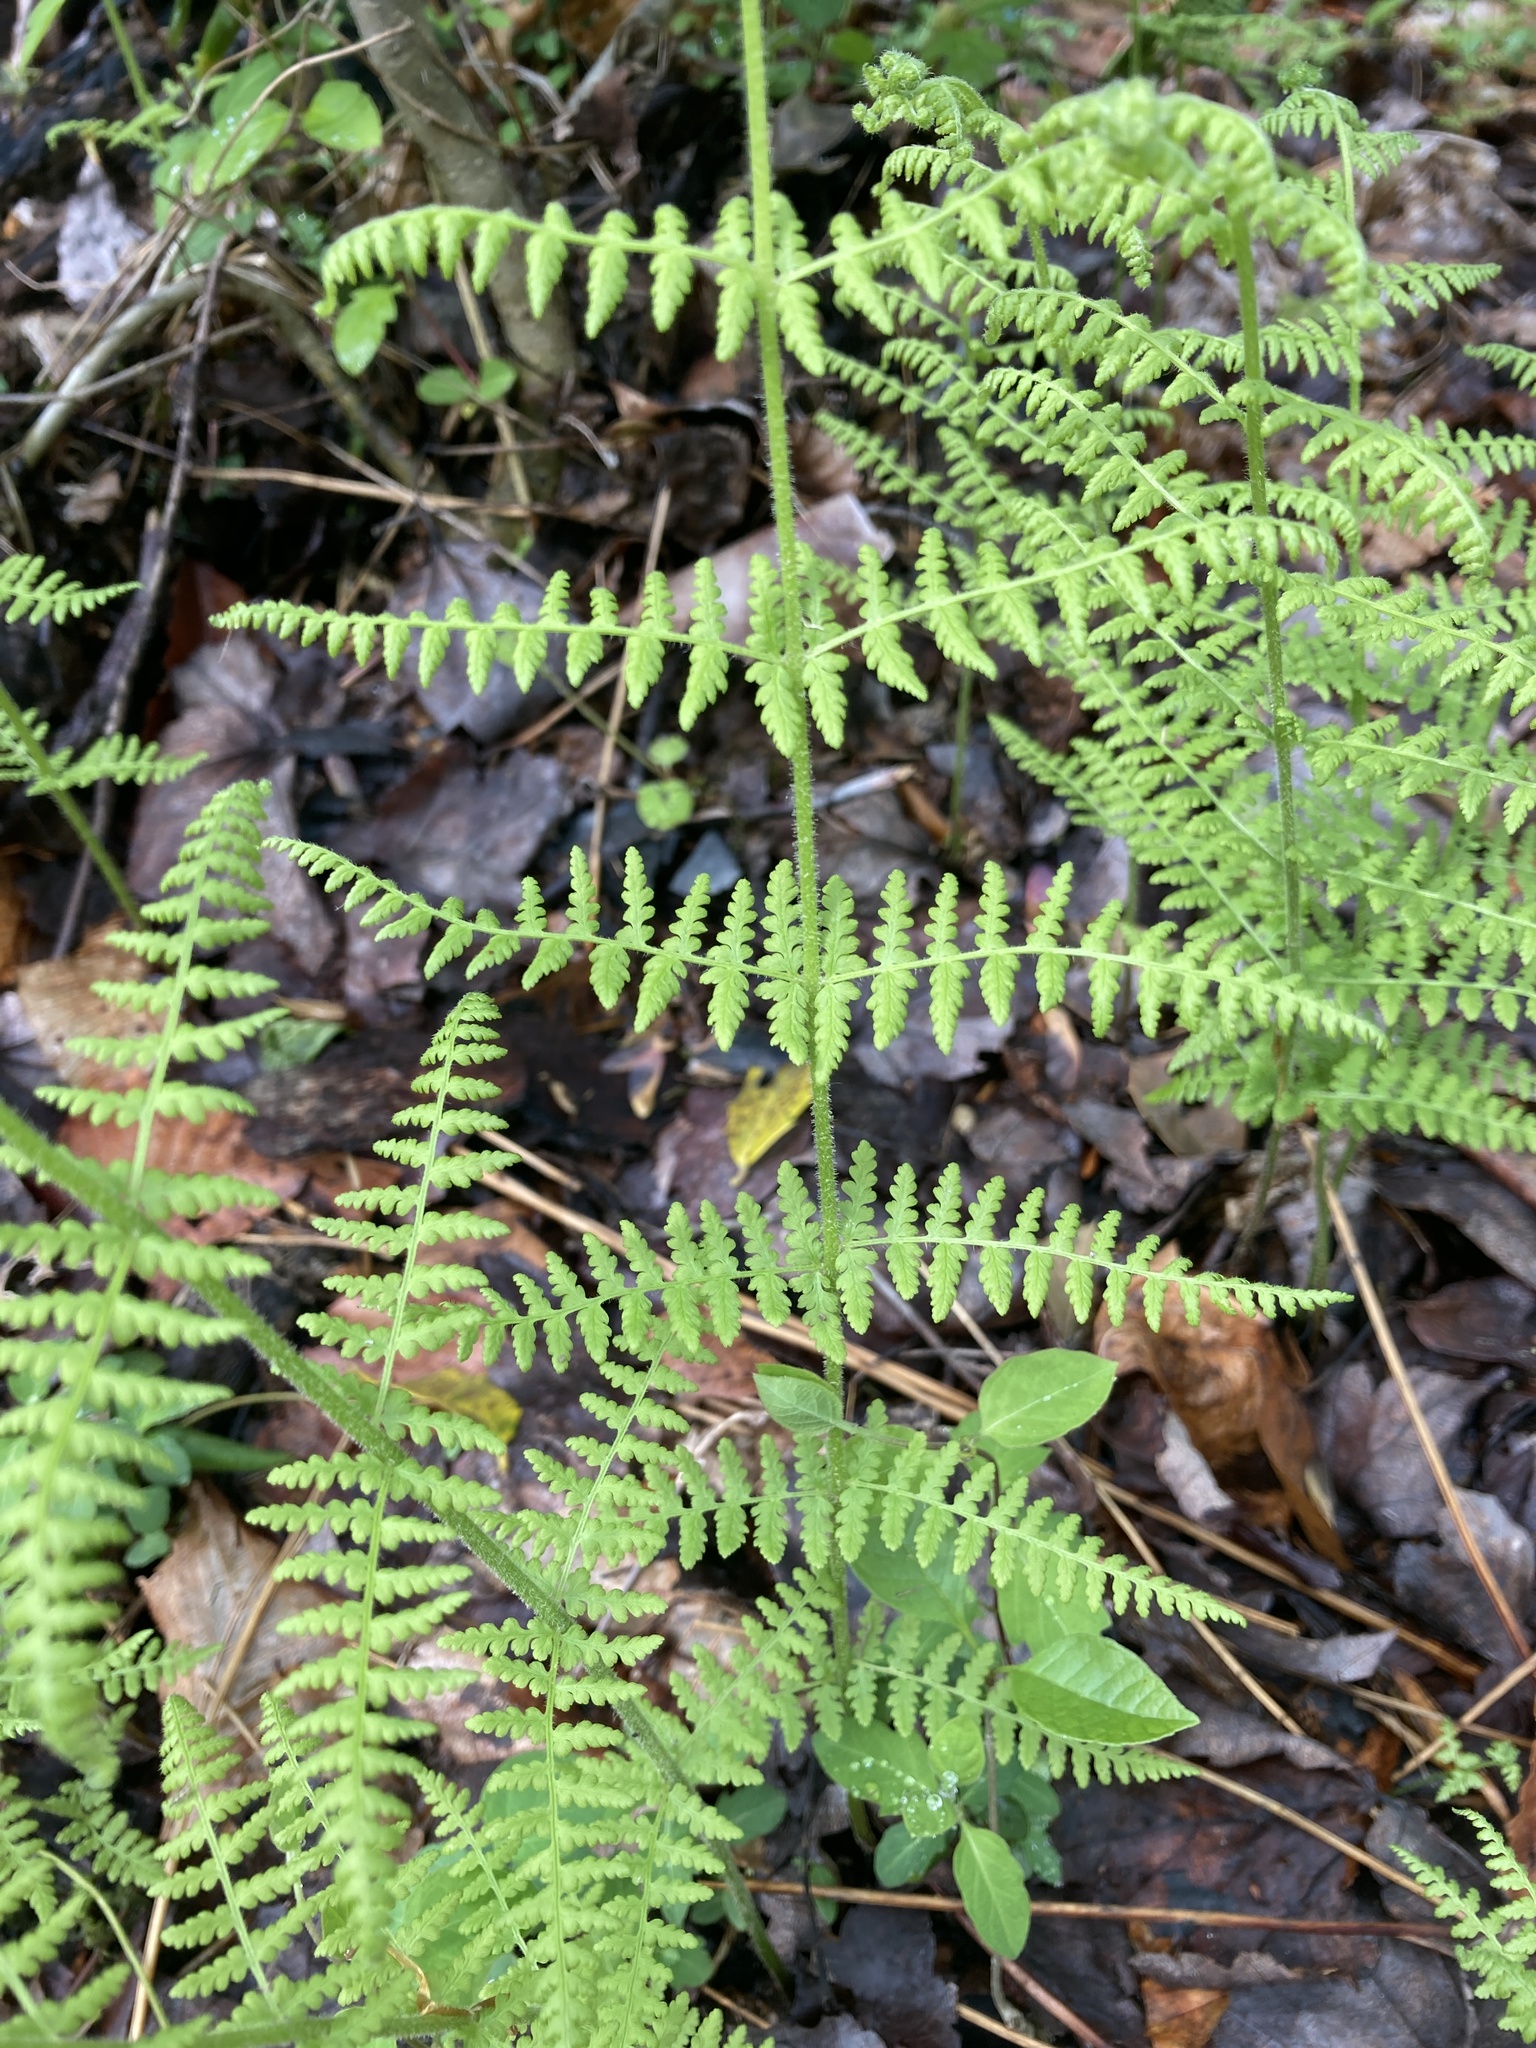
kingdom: Plantae
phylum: Tracheophyta
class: Polypodiopsida
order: Polypodiales
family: Dennstaedtiaceae
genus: Sitobolium
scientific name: Sitobolium punctilobum
